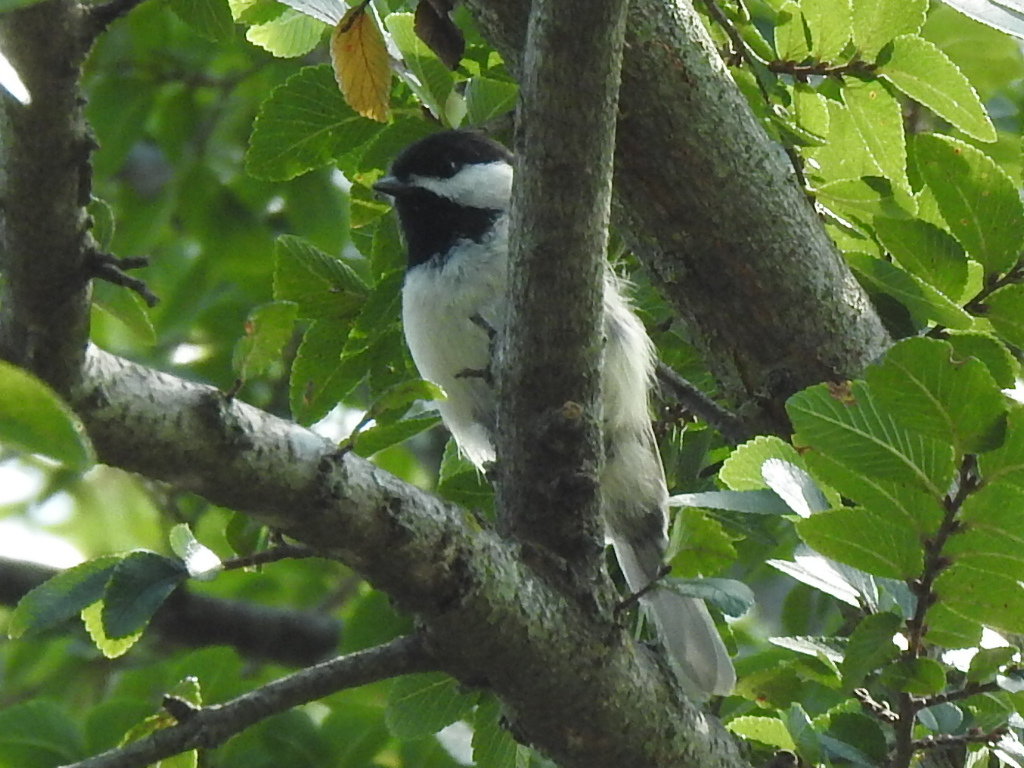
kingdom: Animalia
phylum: Chordata
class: Aves
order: Passeriformes
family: Paridae
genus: Poecile
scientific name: Poecile carolinensis
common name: Carolina chickadee
